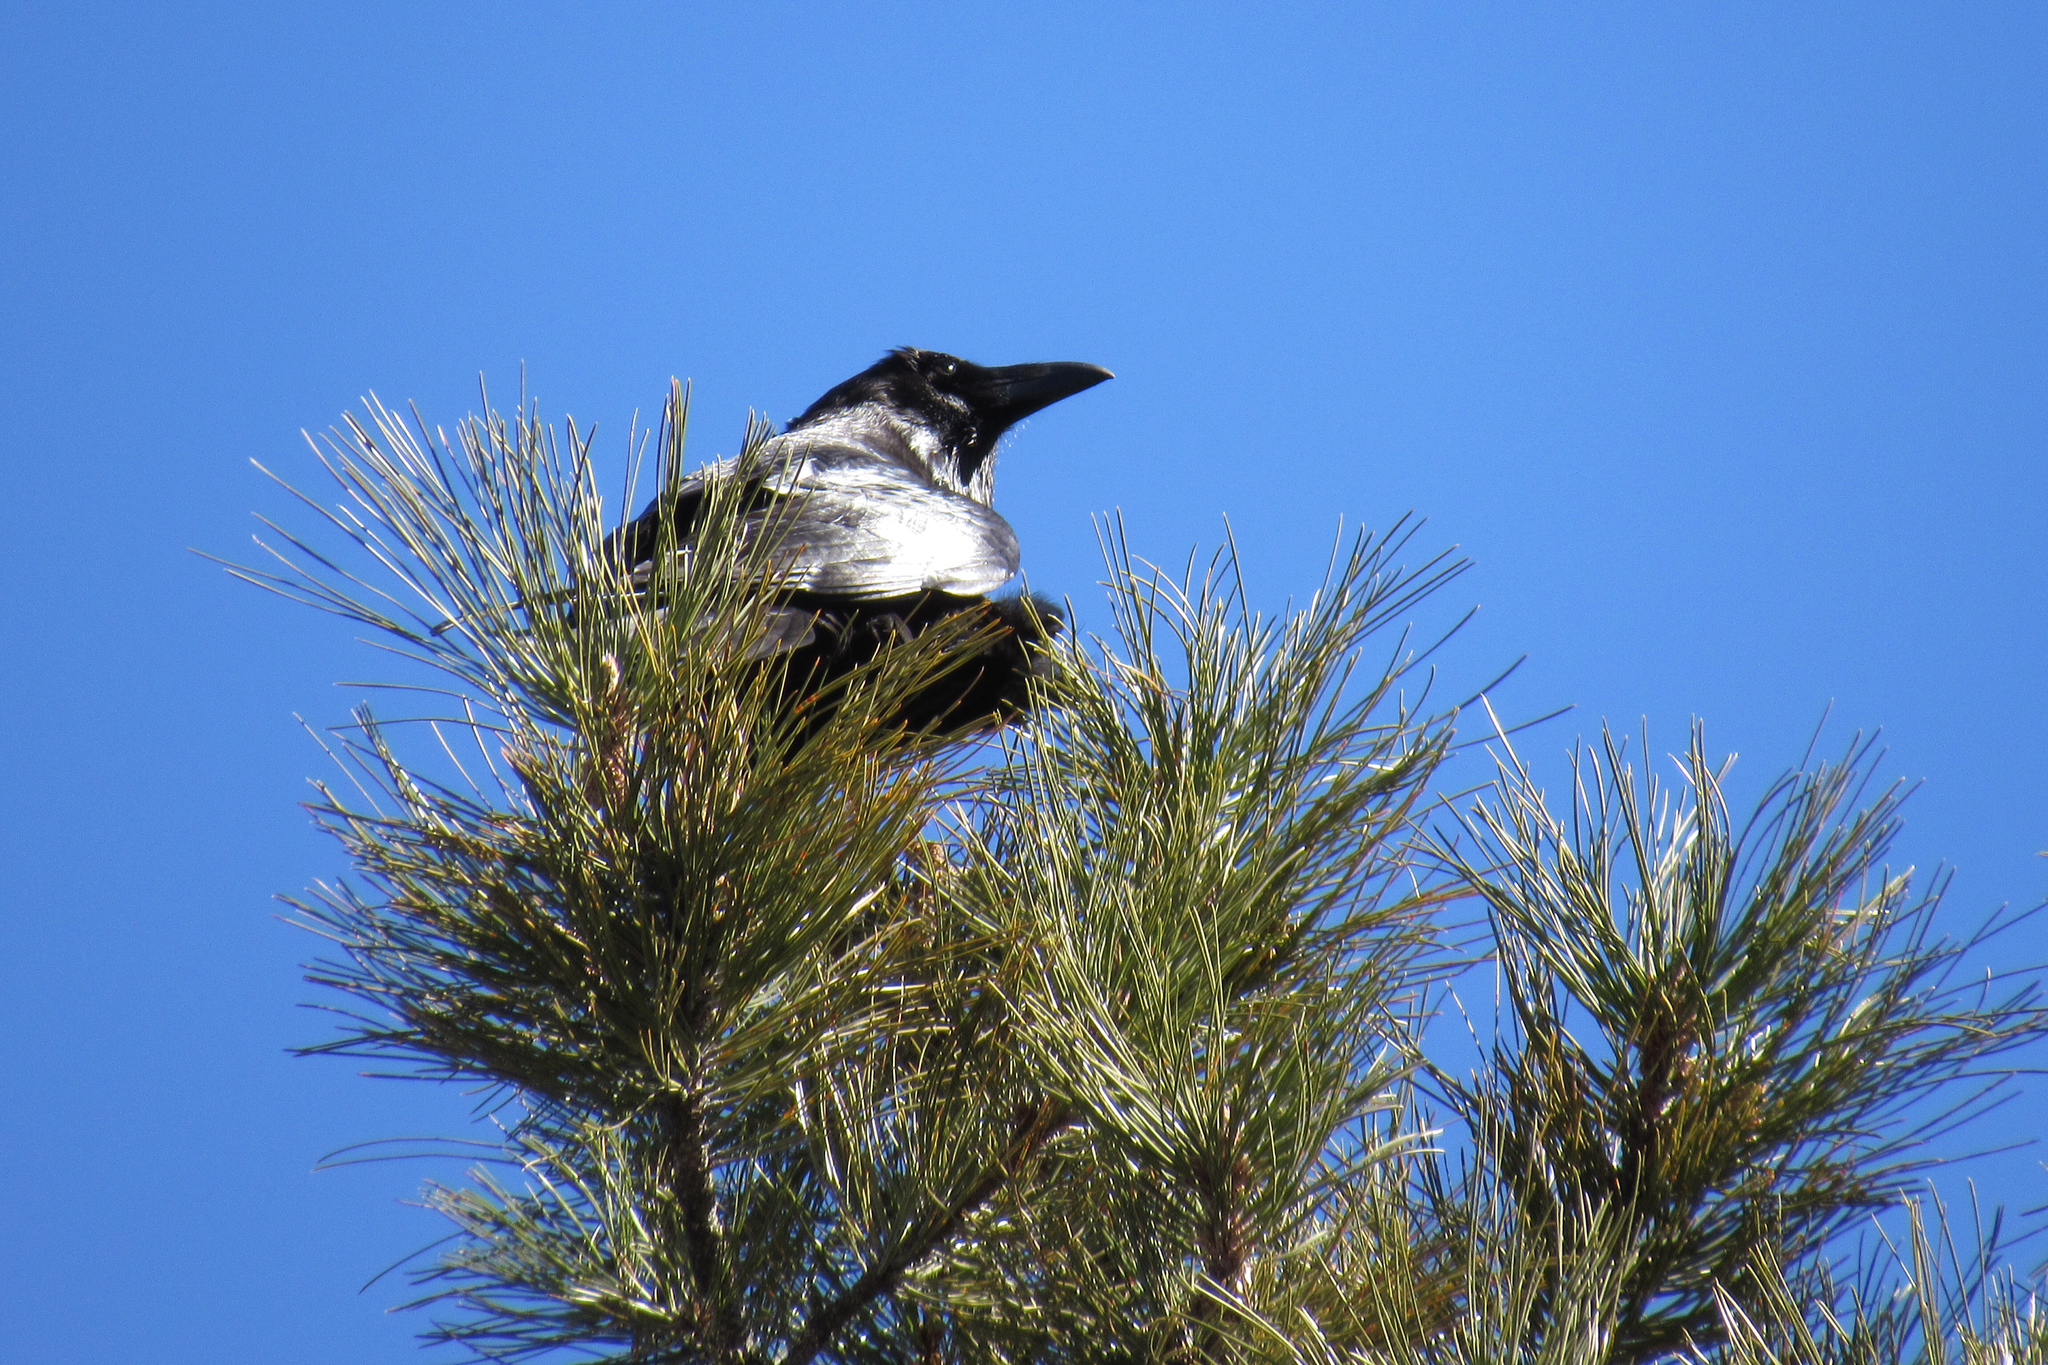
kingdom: Animalia
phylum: Chordata
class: Aves
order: Passeriformes
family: Corvidae
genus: Corvus
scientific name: Corvus corax
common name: Common raven
